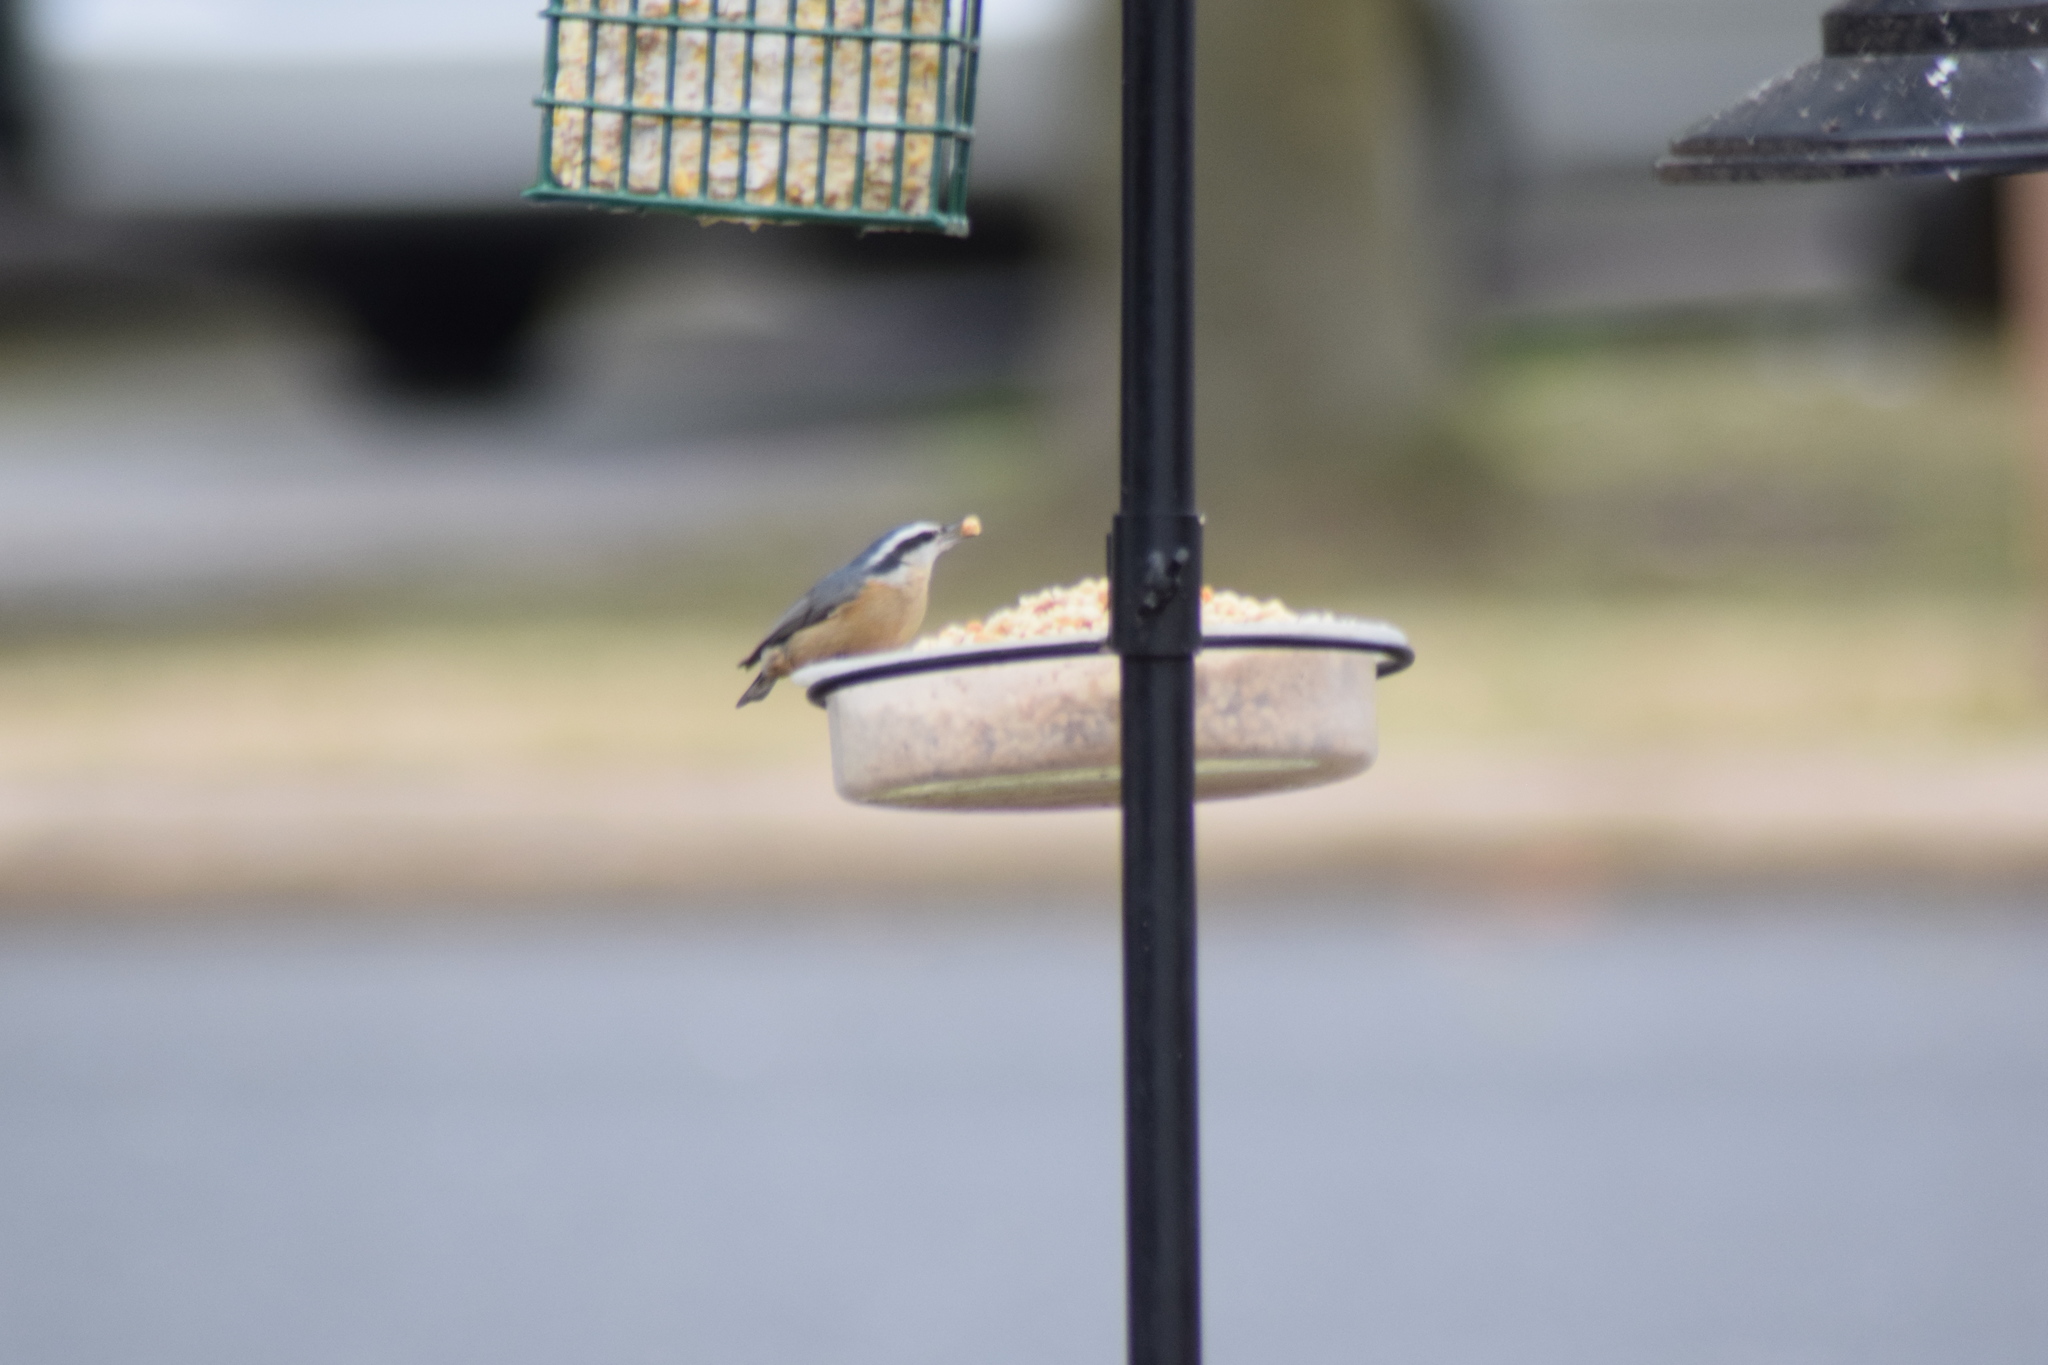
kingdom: Animalia
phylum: Chordata
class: Aves
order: Passeriformes
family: Sittidae
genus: Sitta
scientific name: Sitta canadensis
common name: Red-breasted nuthatch
